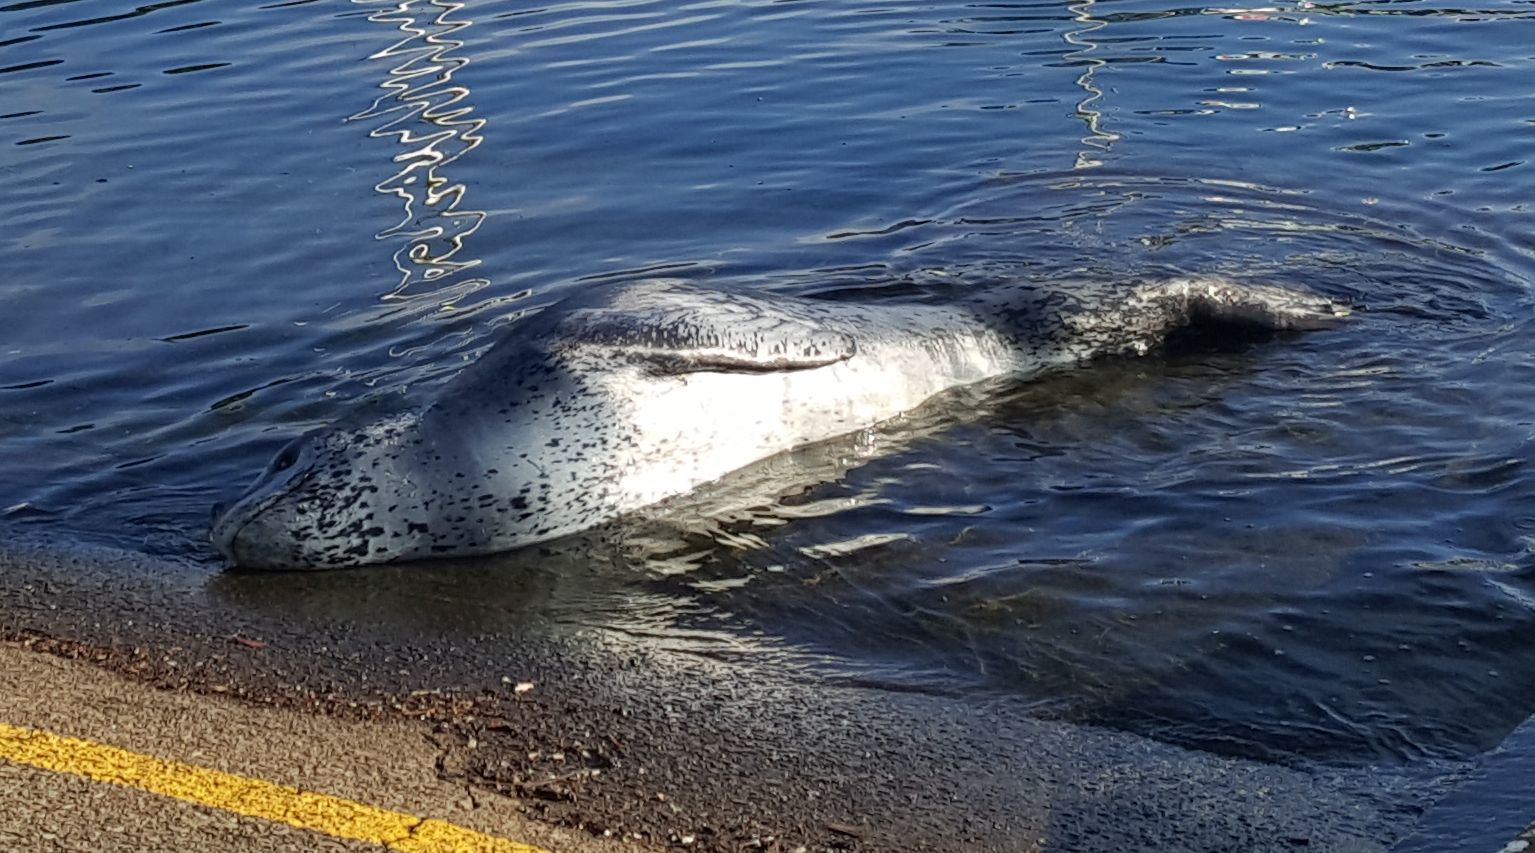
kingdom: Animalia
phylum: Chordata
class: Mammalia
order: Carnivora
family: Phocidae
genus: Hydrurga
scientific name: Hydrurga leptonyx
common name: Leopard seal
